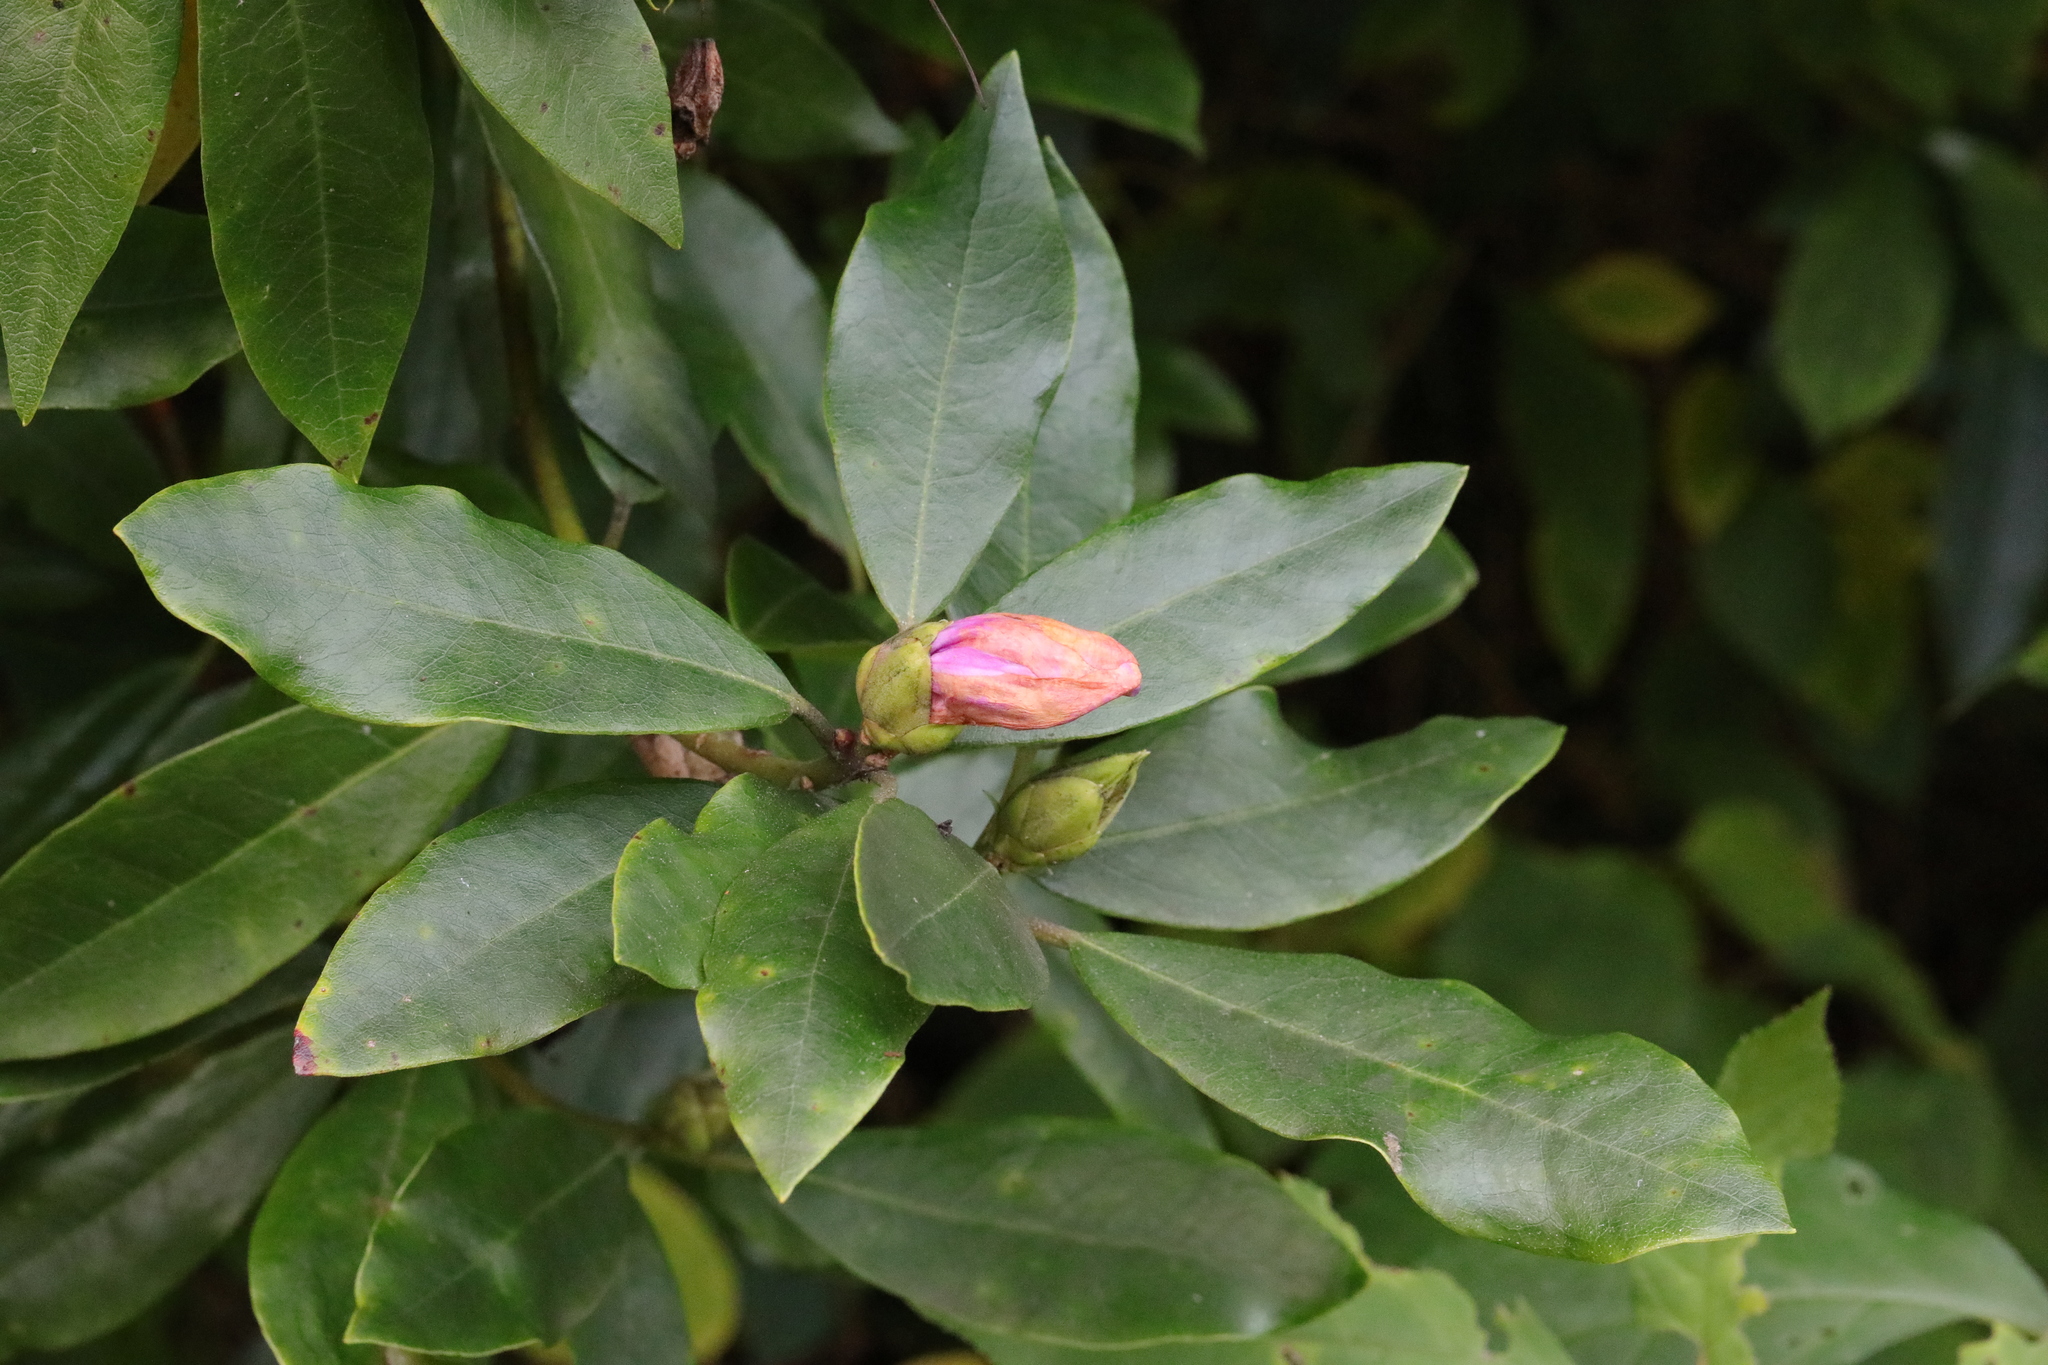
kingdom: Plantae
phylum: Tracheophyta
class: Magnoliopsida
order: Ericales
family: Ericaceae
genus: Rhododendron
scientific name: Rhododendron ponticum
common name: Rhododendron
